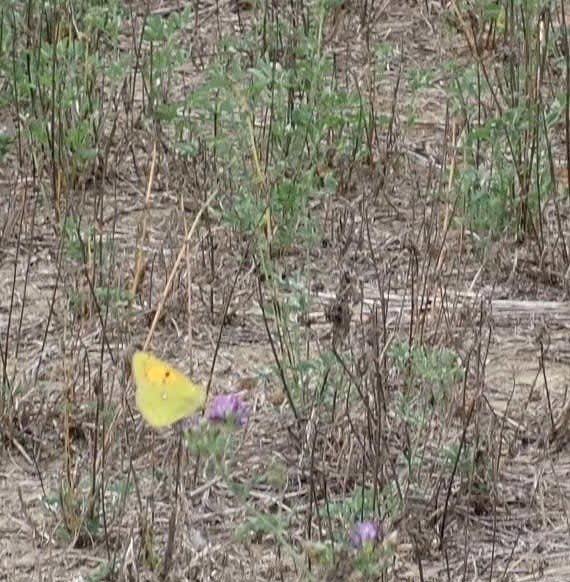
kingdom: Animalia
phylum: Arthropoda
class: Insecta
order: Lepidoptera
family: Pieridae
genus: Colias
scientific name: Colias croceus
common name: Clouded yellow
